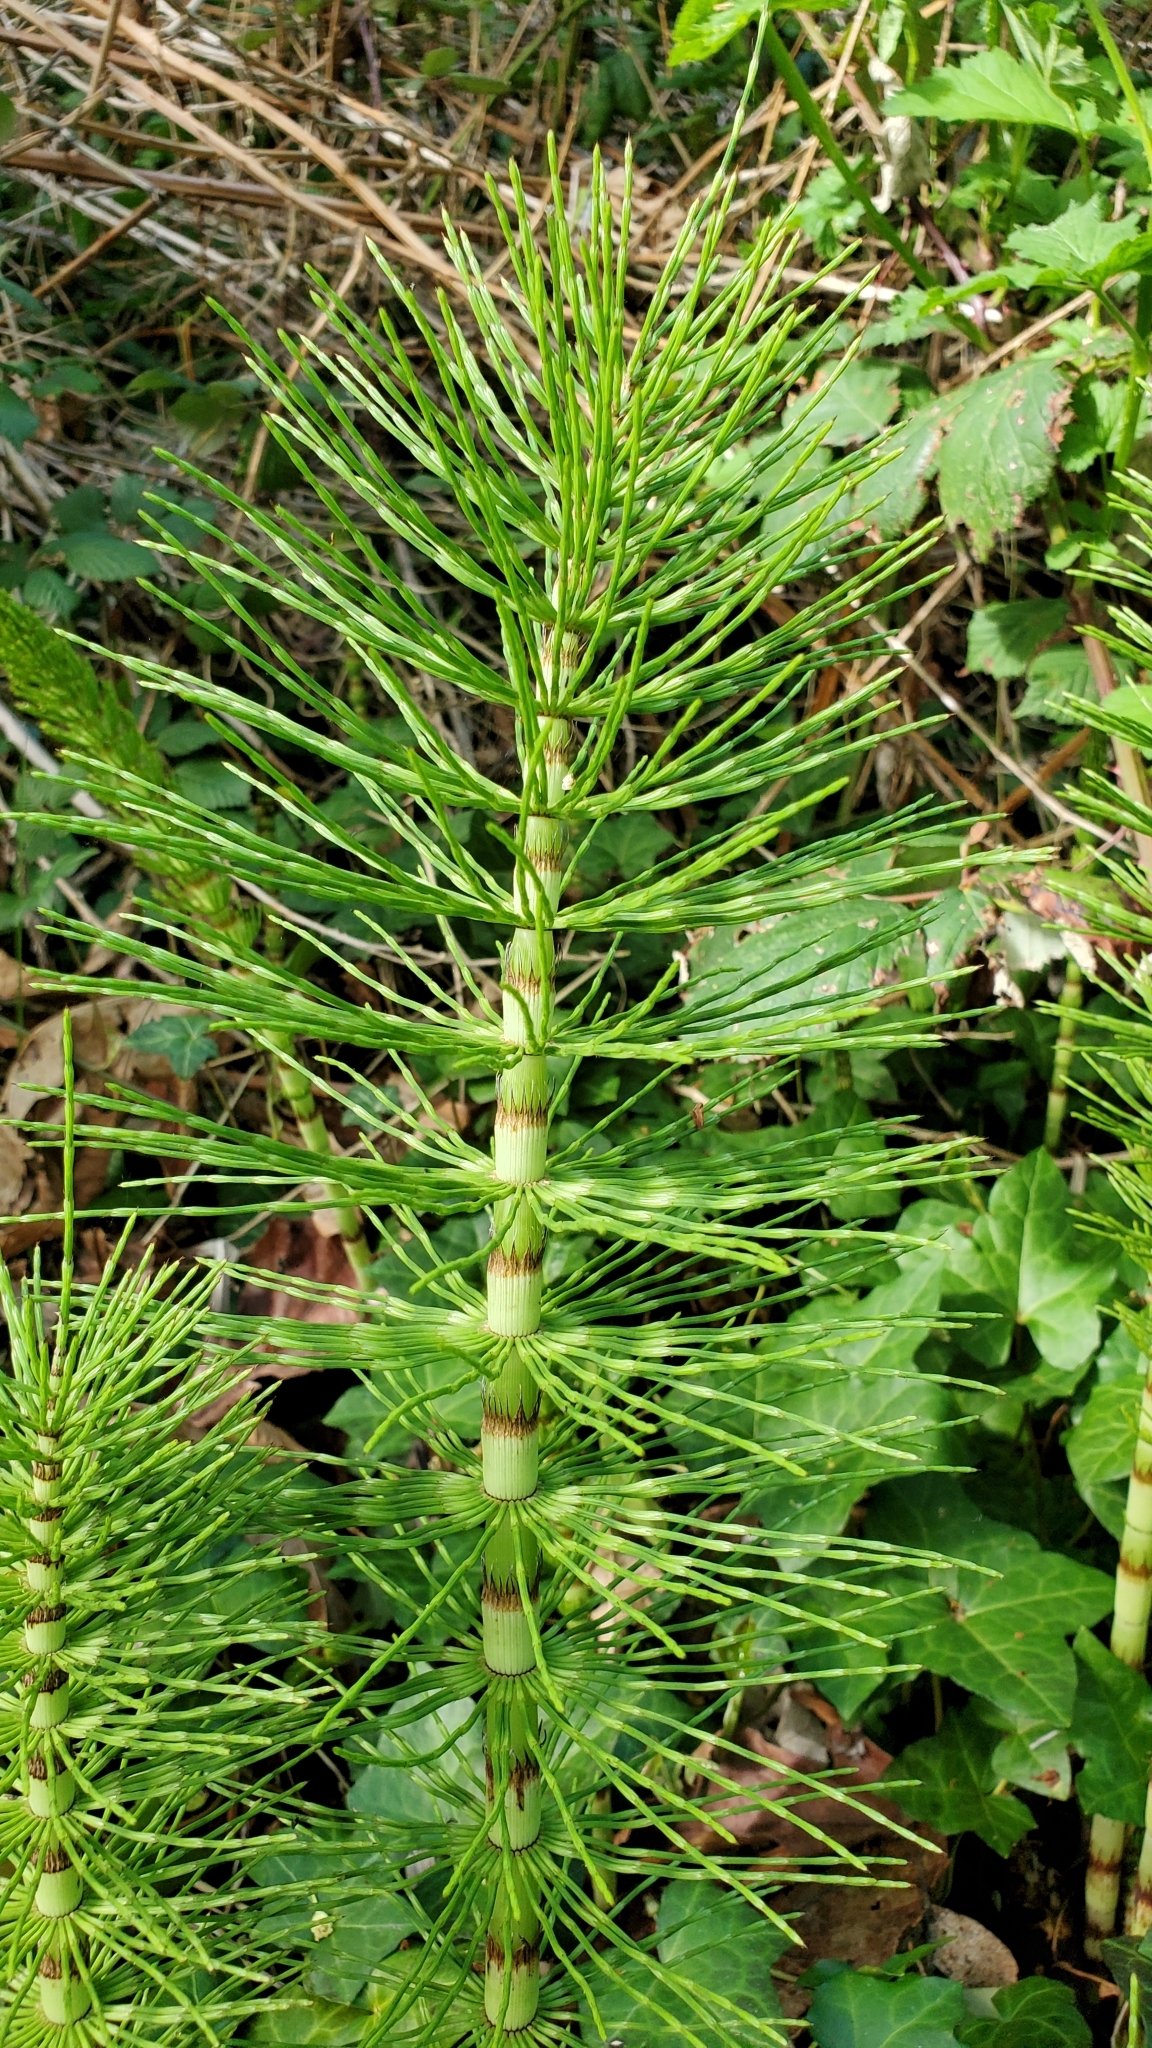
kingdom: Plantae
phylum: Tracheophyta
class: Polypodiopsida
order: Equisetales
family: Equisetaceae
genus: Equisetum
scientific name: Equisetum braunii
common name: Braun's horsetail
